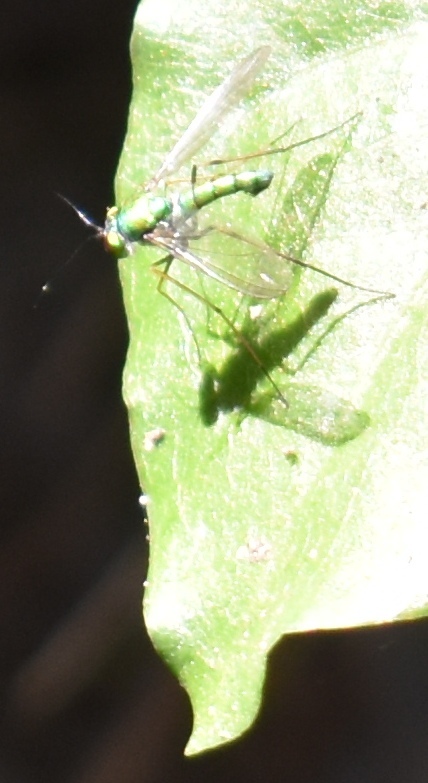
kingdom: Animalia
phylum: Arthropoda
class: Insecta
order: Diptera
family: Dolichopodidae
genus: Chrysosoma
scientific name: Chrysosoma globifer
